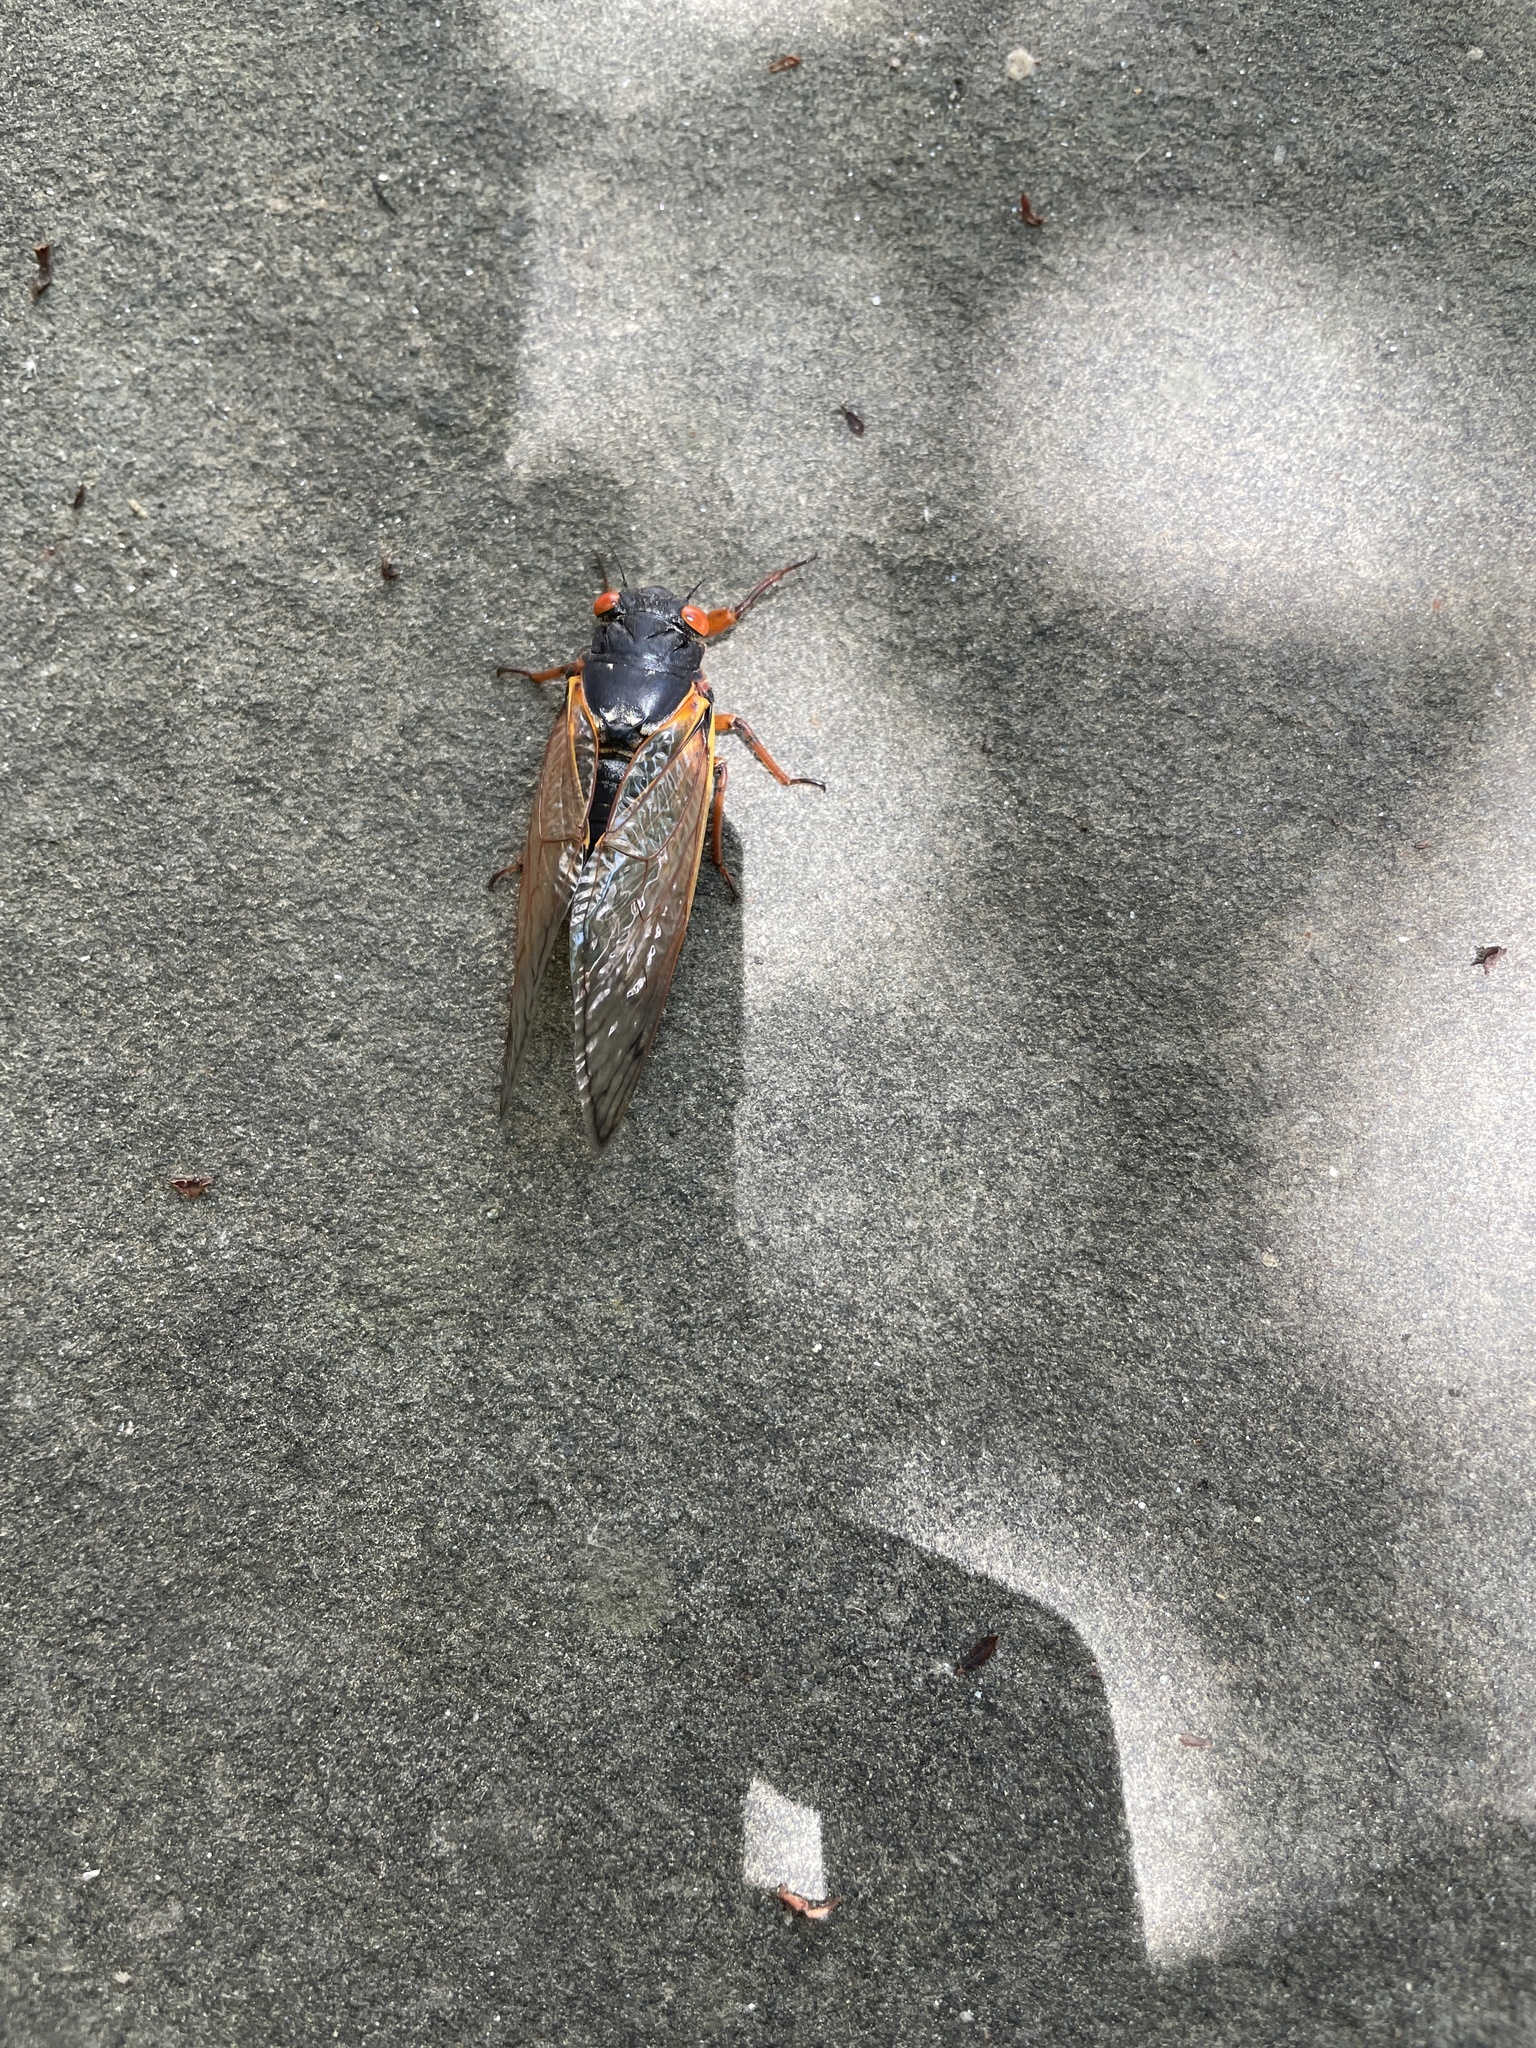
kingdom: Animalia
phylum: Arthropoda
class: Insecta
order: Hemiptera
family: Cicadidae
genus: Magicicada
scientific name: Magicicada septendecim
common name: Periodical cicada
